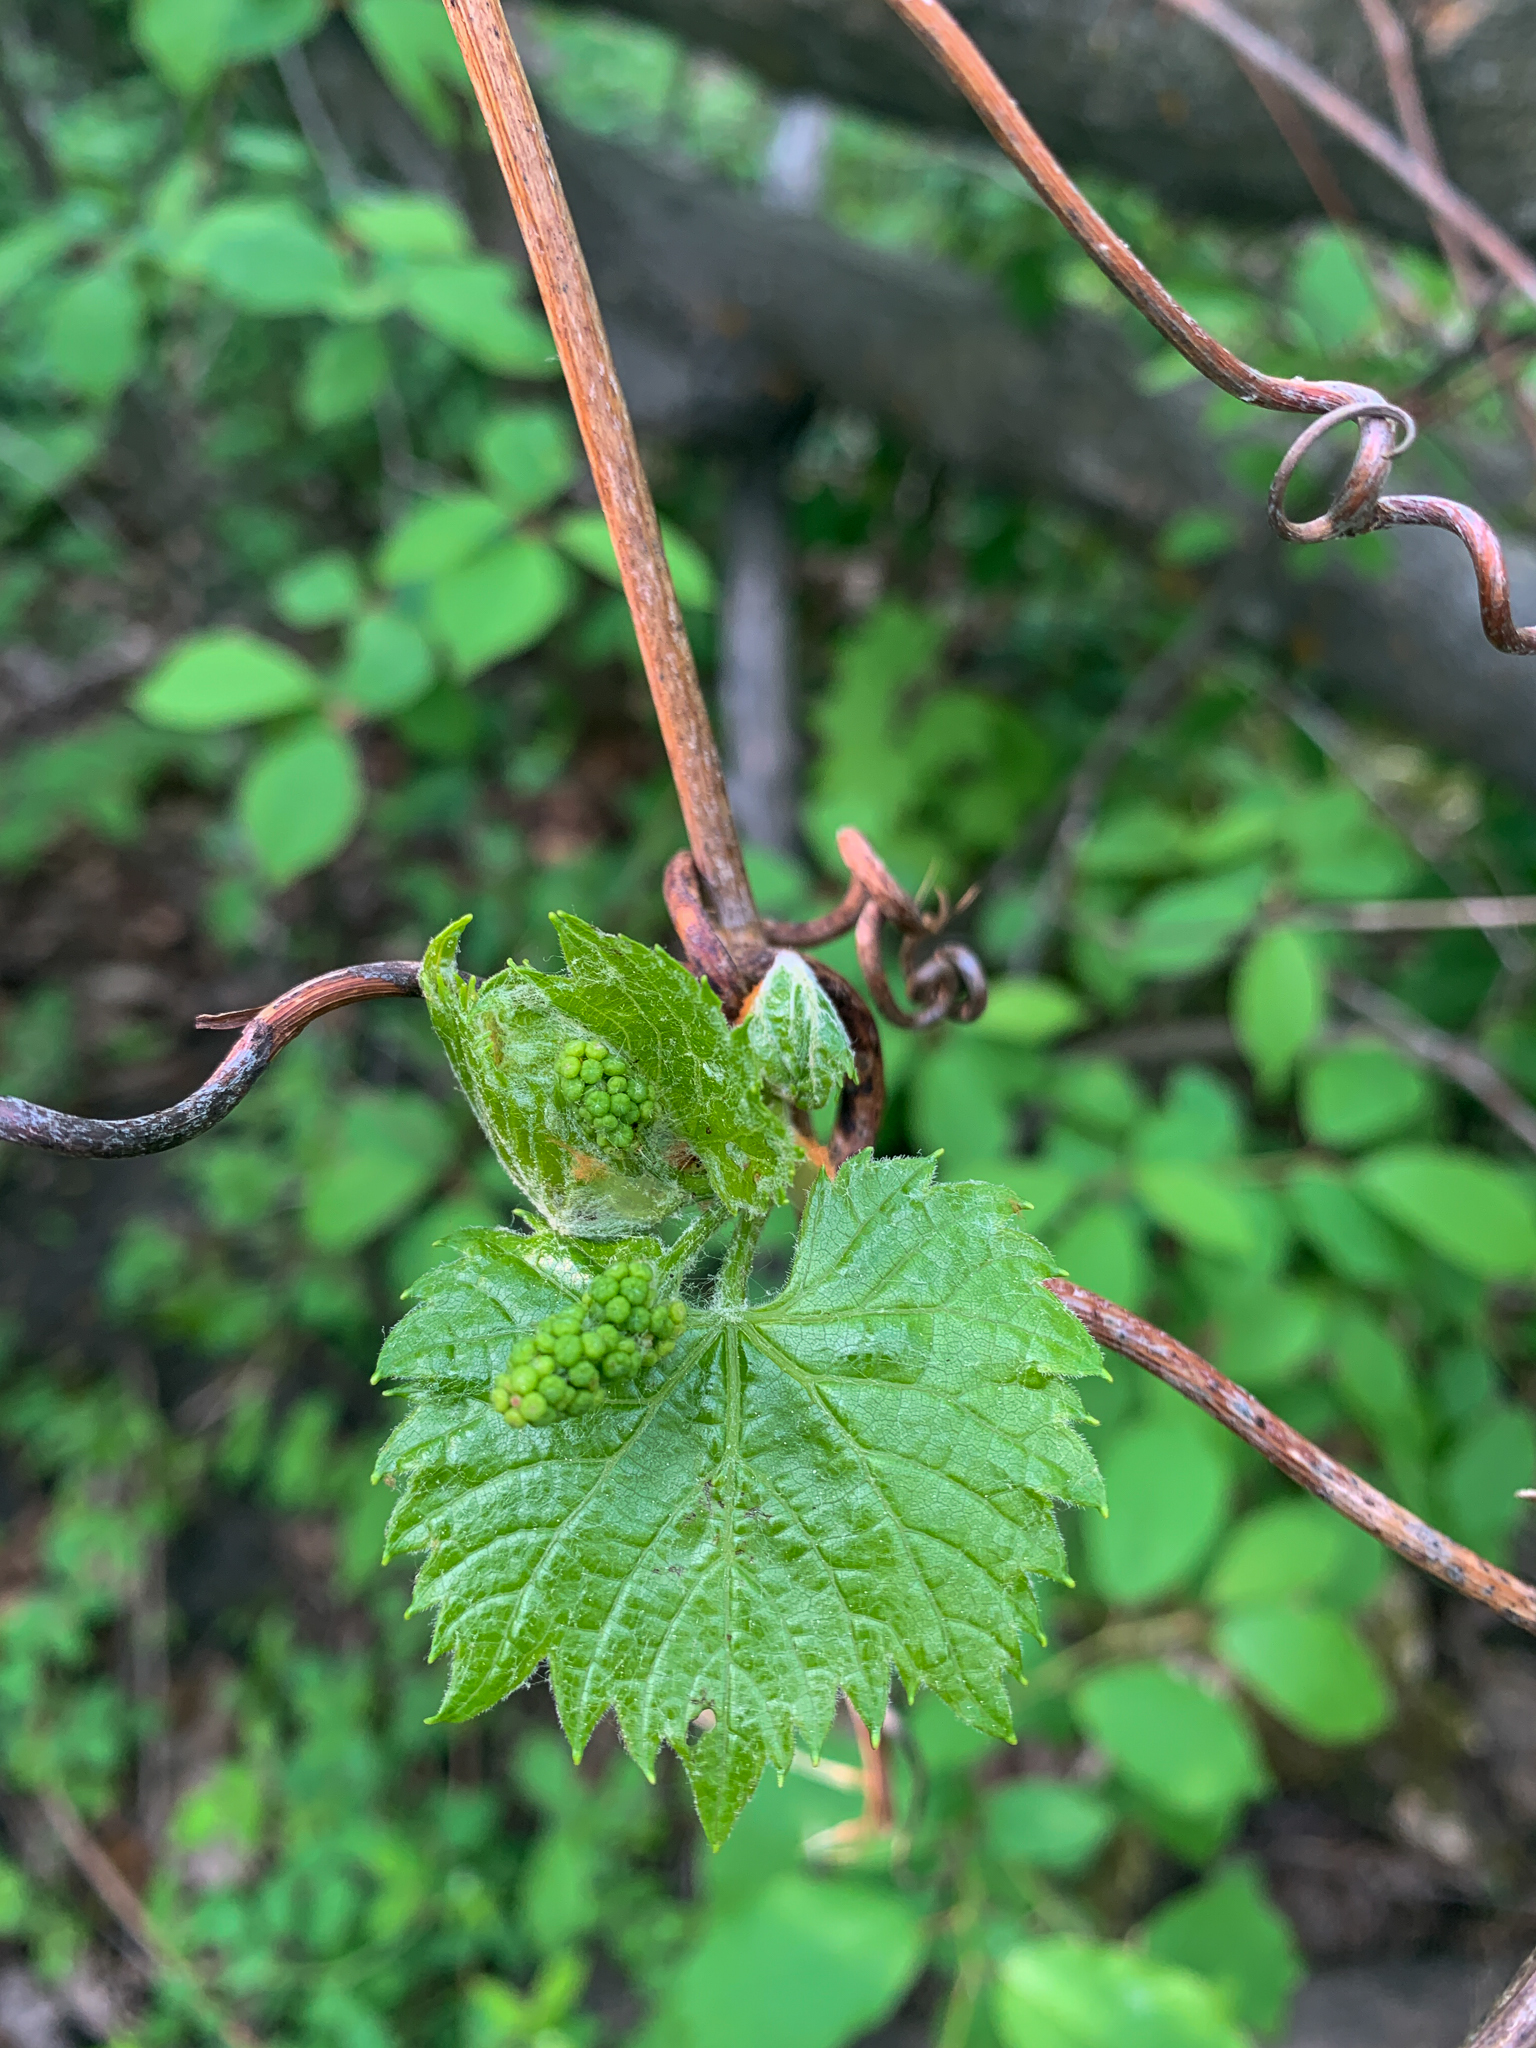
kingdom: Plantae
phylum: Tracheophyta
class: Magnoliopsida
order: Vitales
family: Vitaceae
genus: Vitis
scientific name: Vitis riparia
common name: Frost grape
